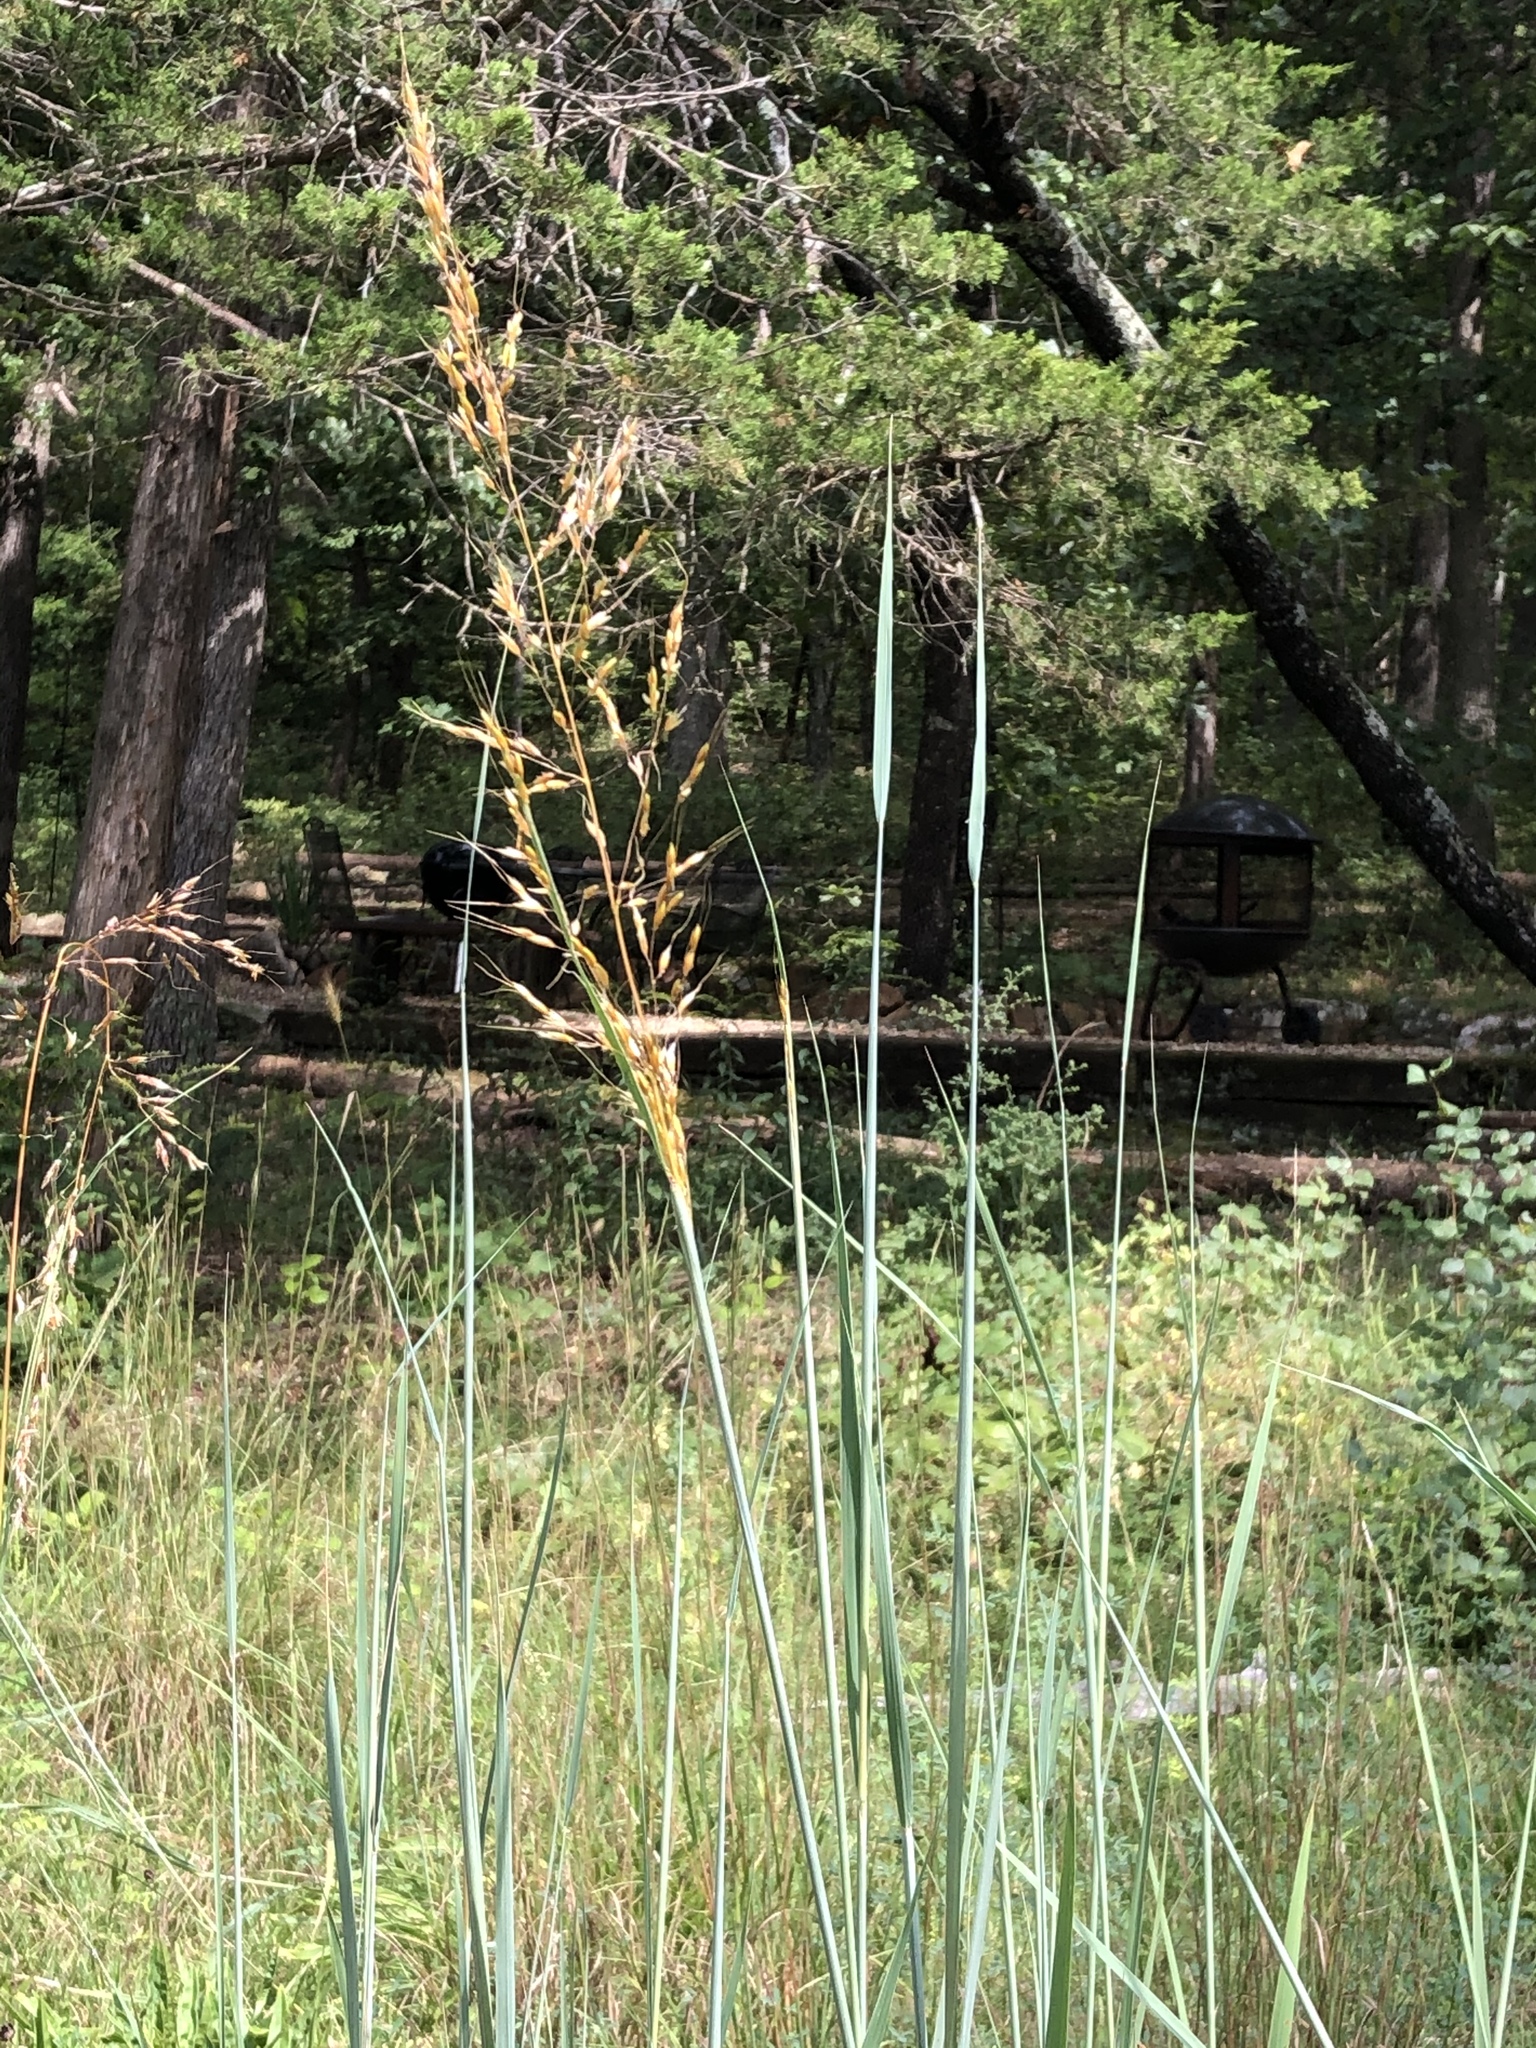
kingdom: Plantae
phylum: Tracheophyta
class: Liliopsida
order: Poales
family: Poaceae
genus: Sorghastrum
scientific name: Sorghastrum nutans
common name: Indian grass
